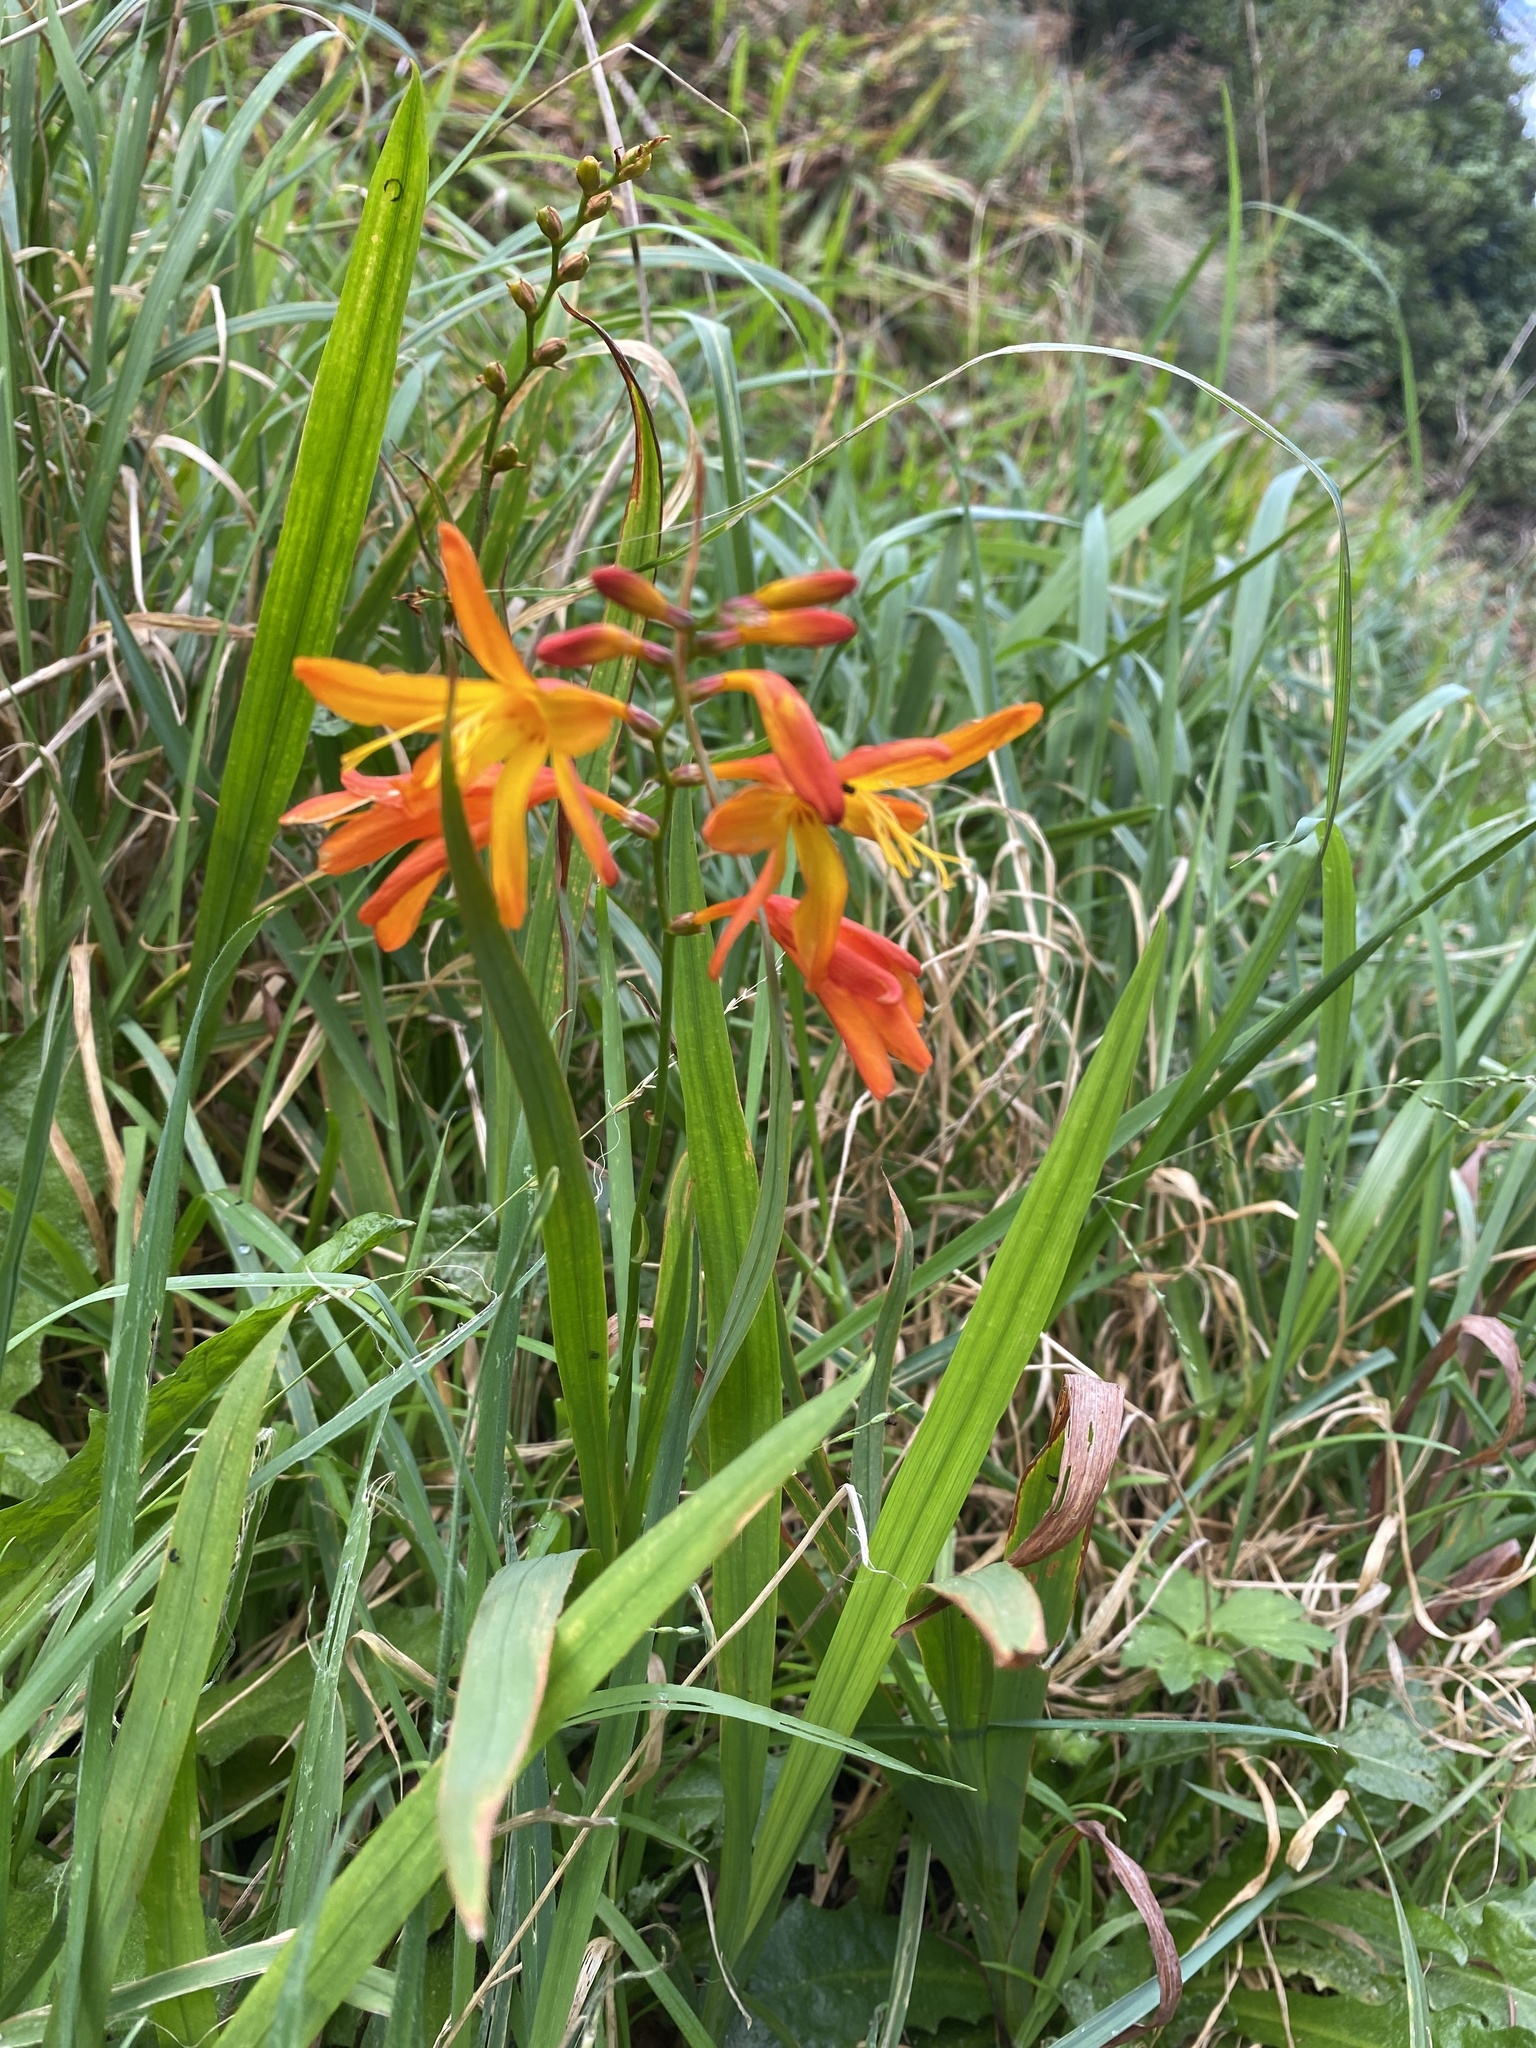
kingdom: Plantae
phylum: Tracheophyta
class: Liliopsida
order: Asparagales
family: Iridaceae
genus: Crocosmia
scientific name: Crocosmia crocosmiiflora
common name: Montbretia
